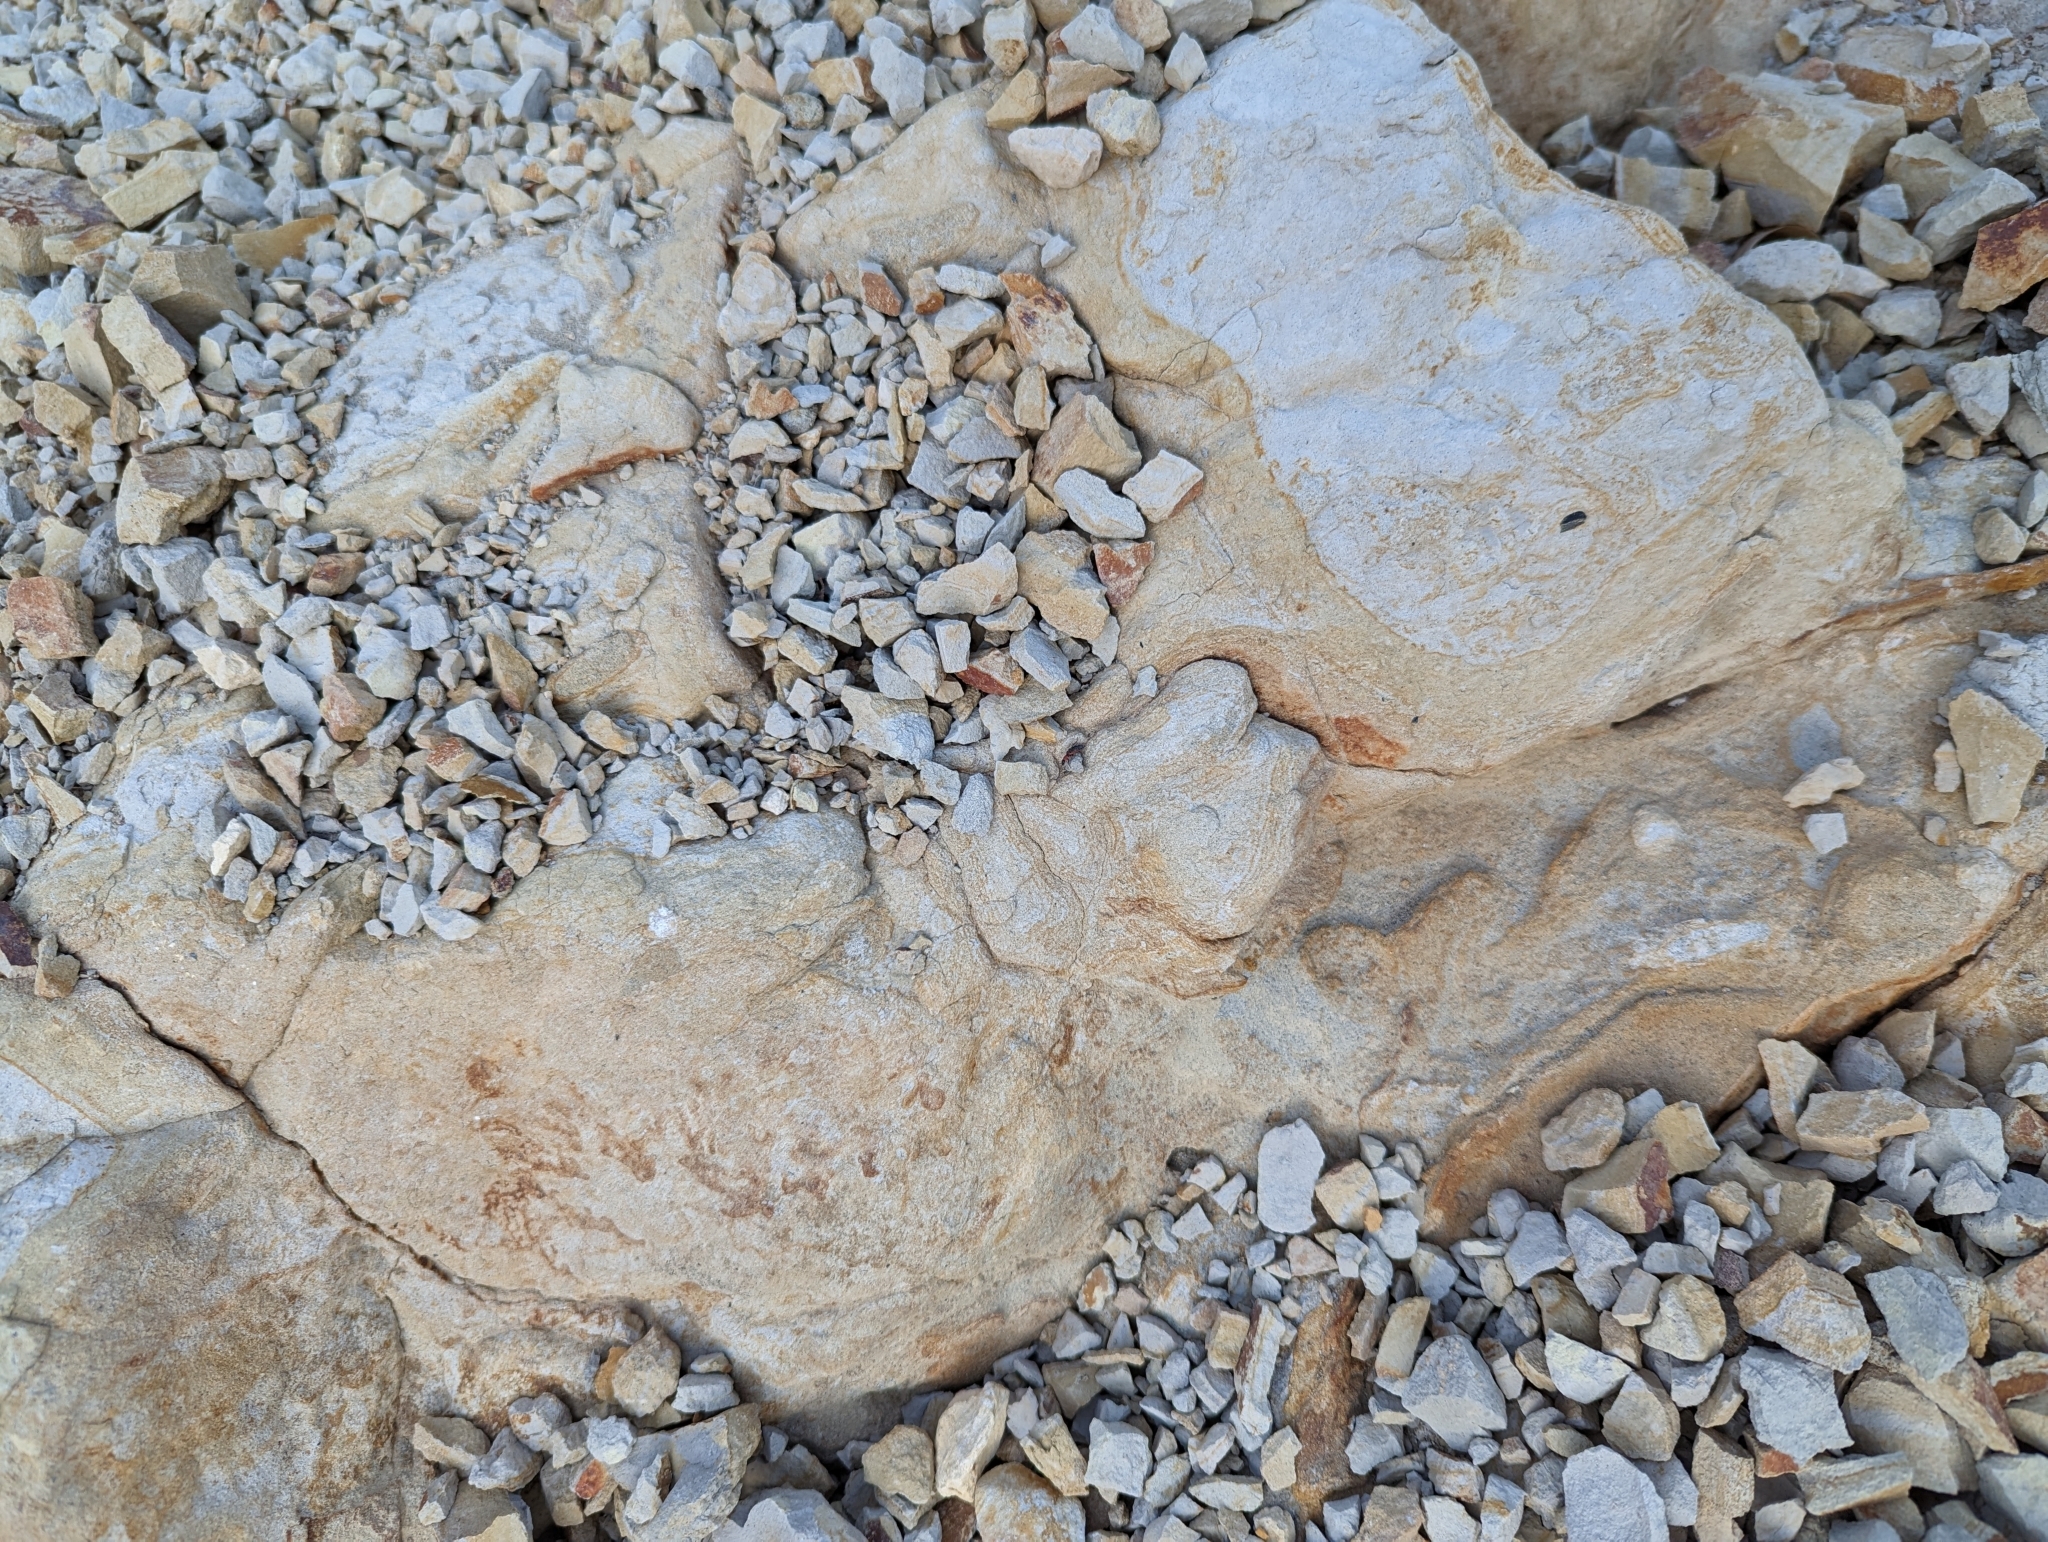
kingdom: Animalia
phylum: Arthropoda
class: Insecta
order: Coleoptera
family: Melyridae
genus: Endeodes
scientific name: Endeodes collaris
